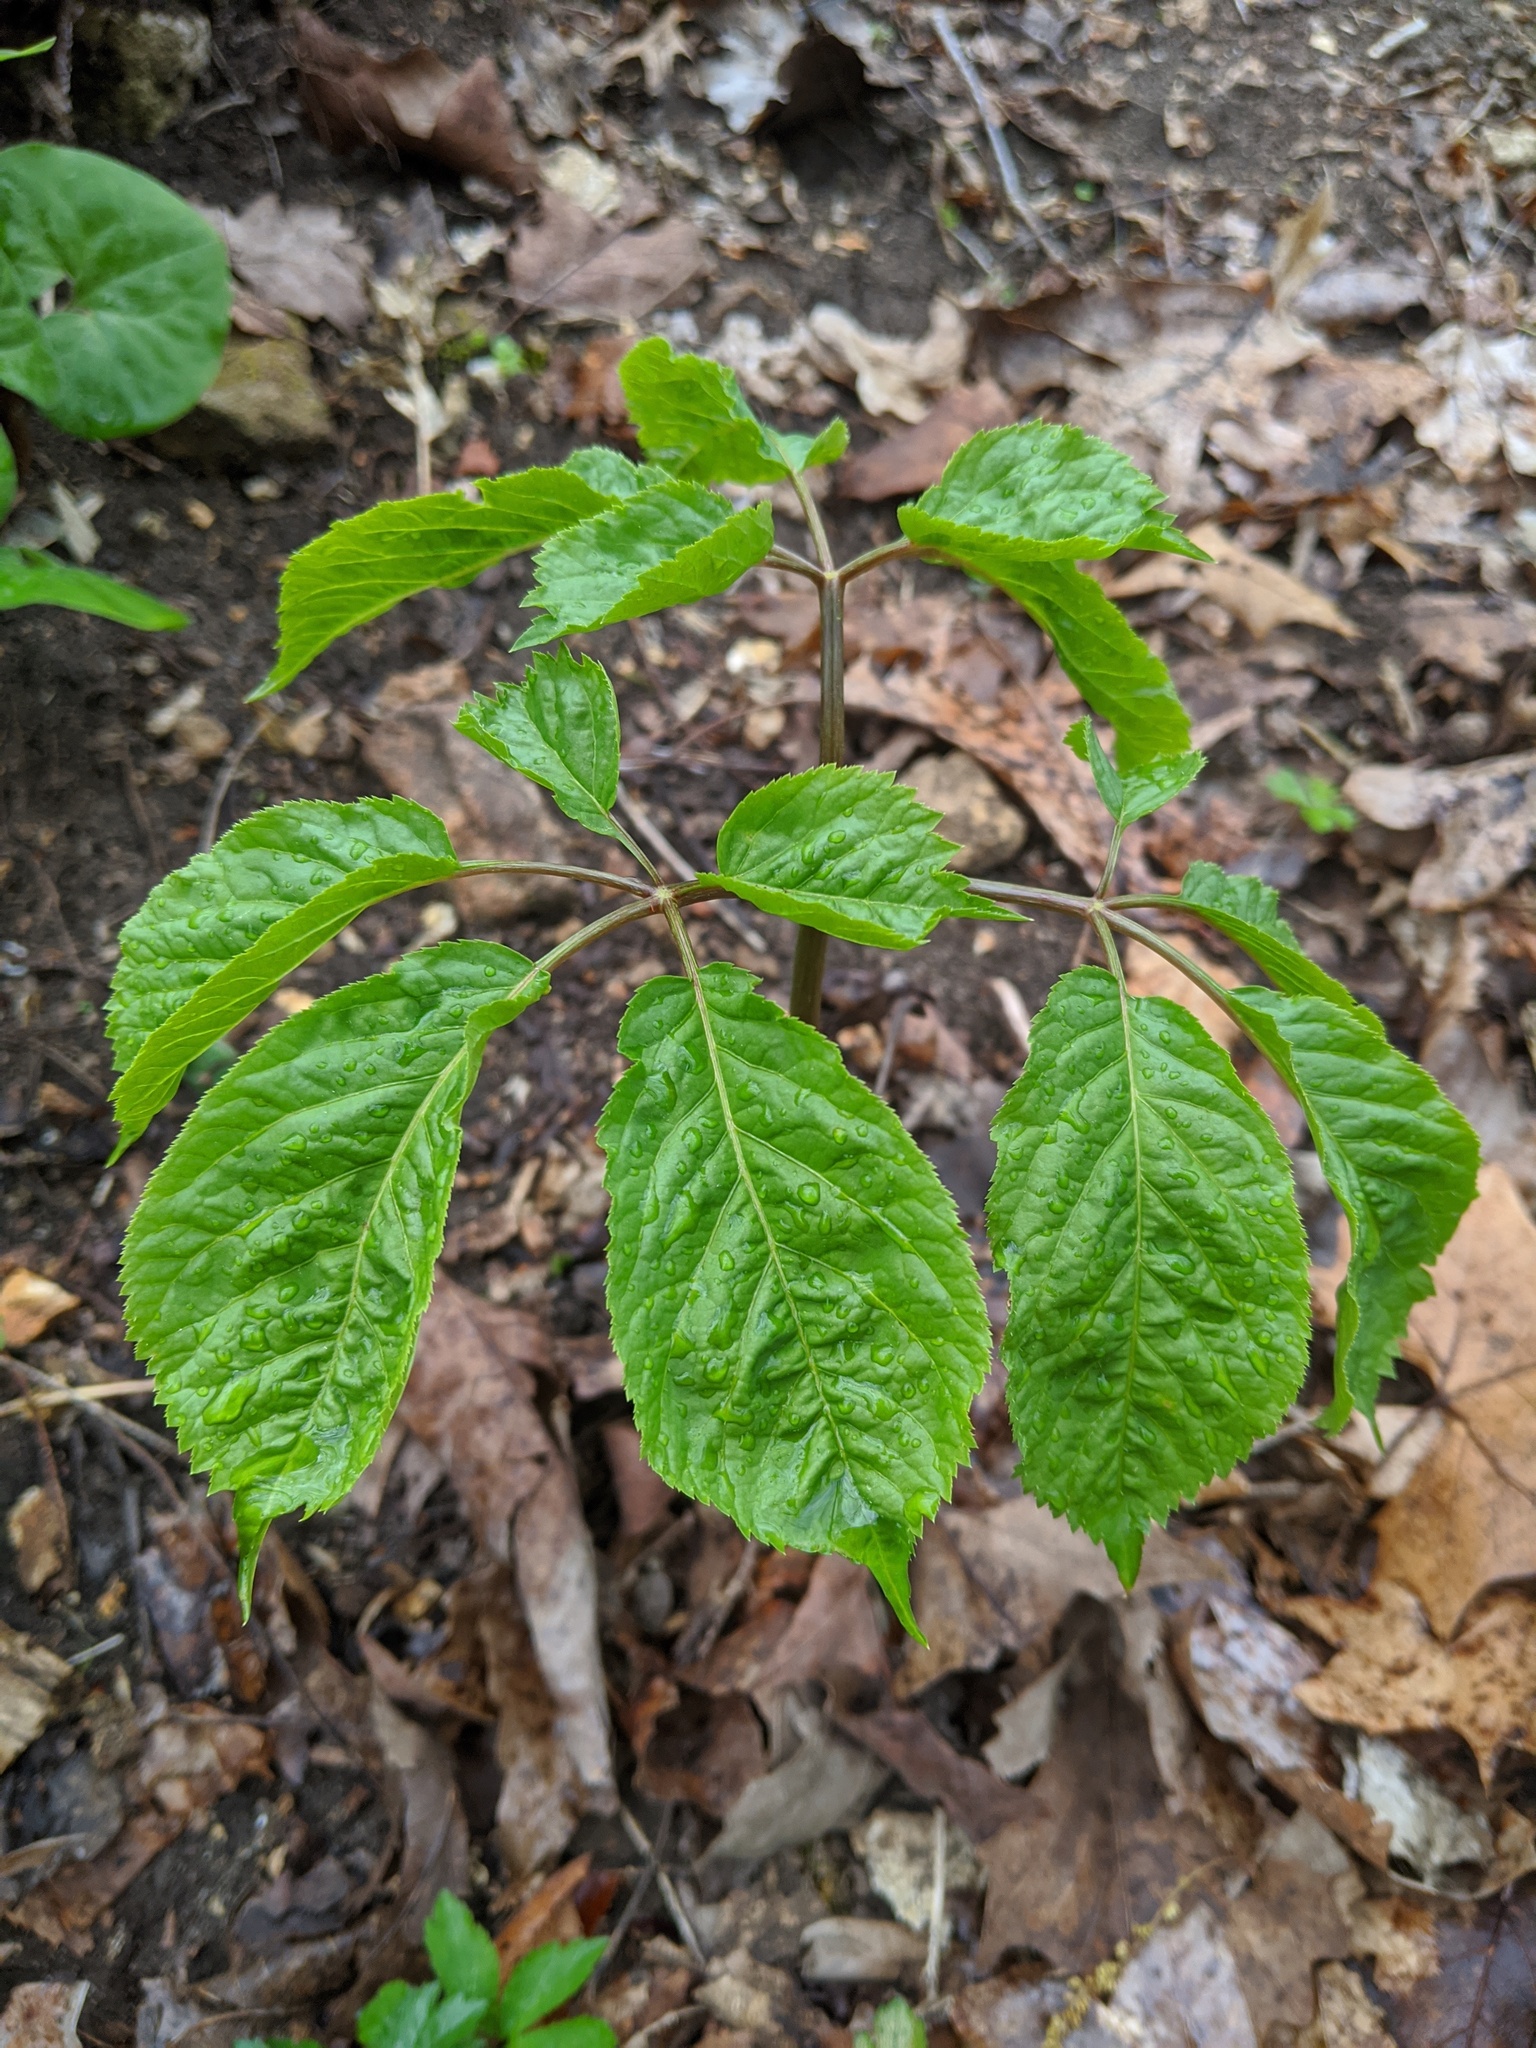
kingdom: Plantae
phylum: Tracheophyta
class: Magnoliopsida
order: Apiales
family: Araliaceae
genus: Panax
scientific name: Panax quinquefolius
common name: American ginseng
